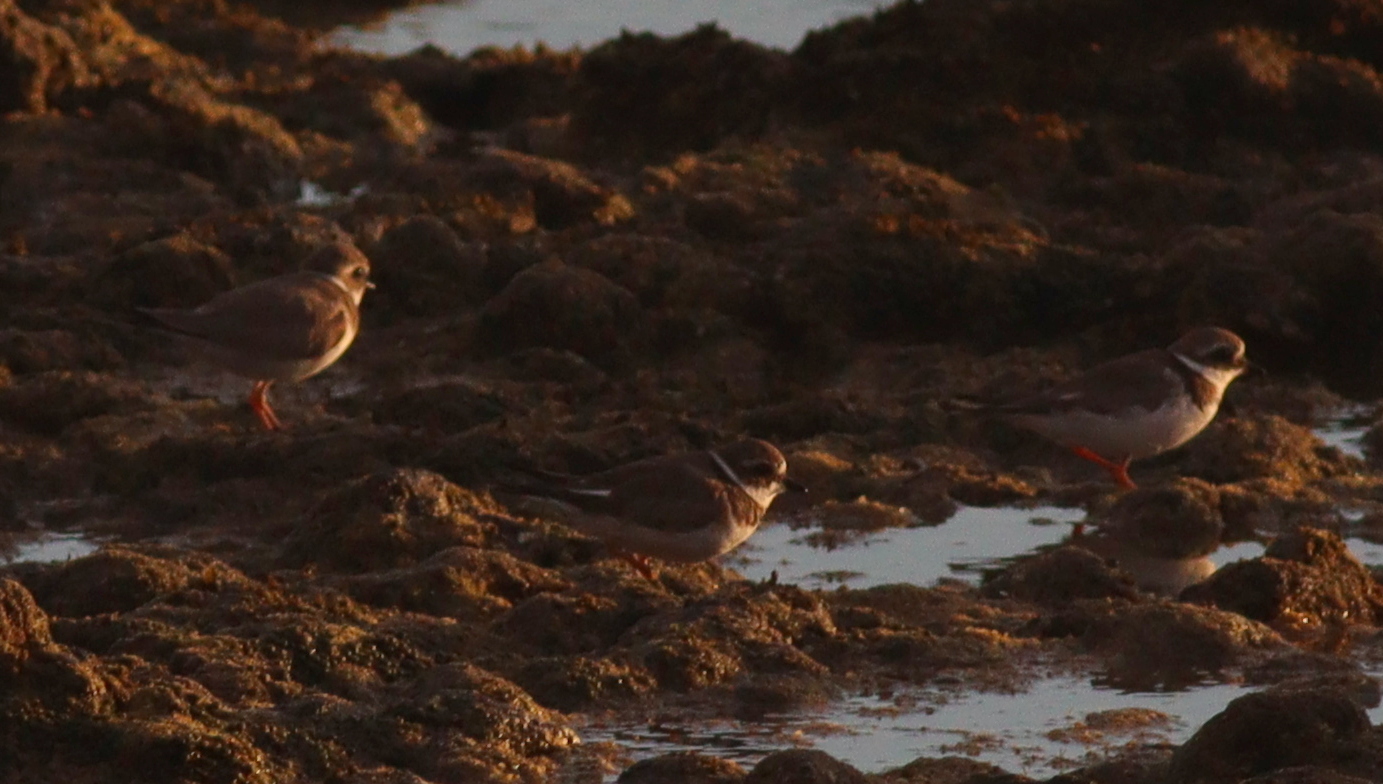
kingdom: Animalia
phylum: Chordata
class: Aves
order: Charadriiformes
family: Charadriidae
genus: Charadrius
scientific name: Charadrius hiaticula
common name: Common ringed plover
